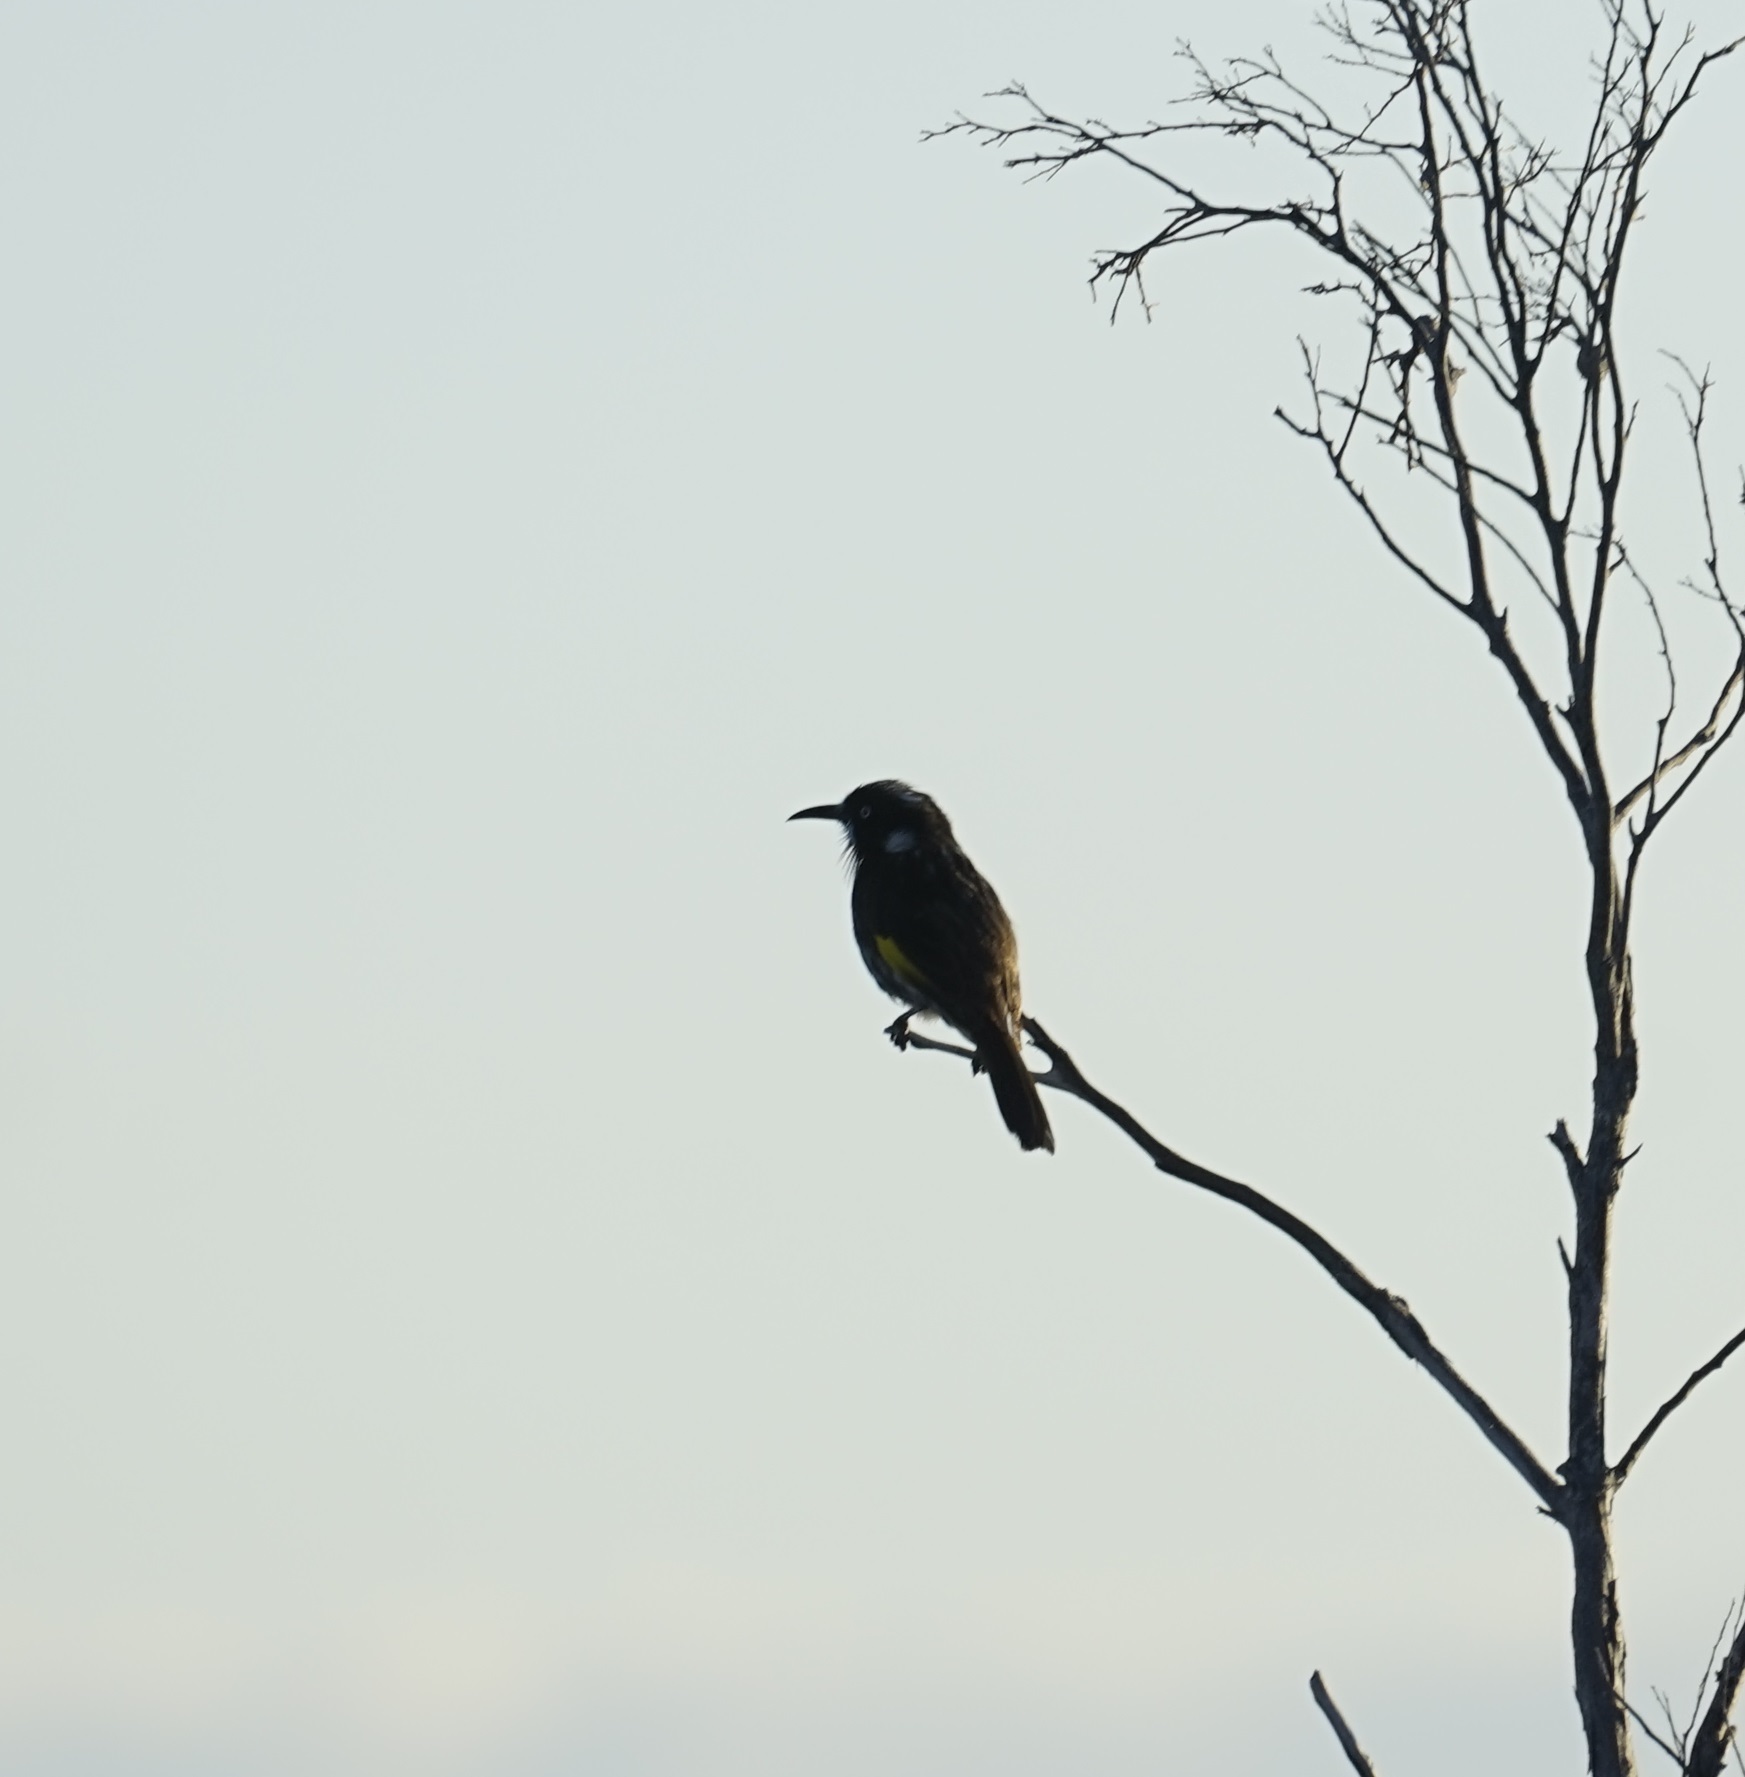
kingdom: Animalia
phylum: Chordata
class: Aves
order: Passeriformes
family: Meliphagidae
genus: Phylidonyris
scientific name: Phylidonyris novaehollandiae
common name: New holland honeyeater
